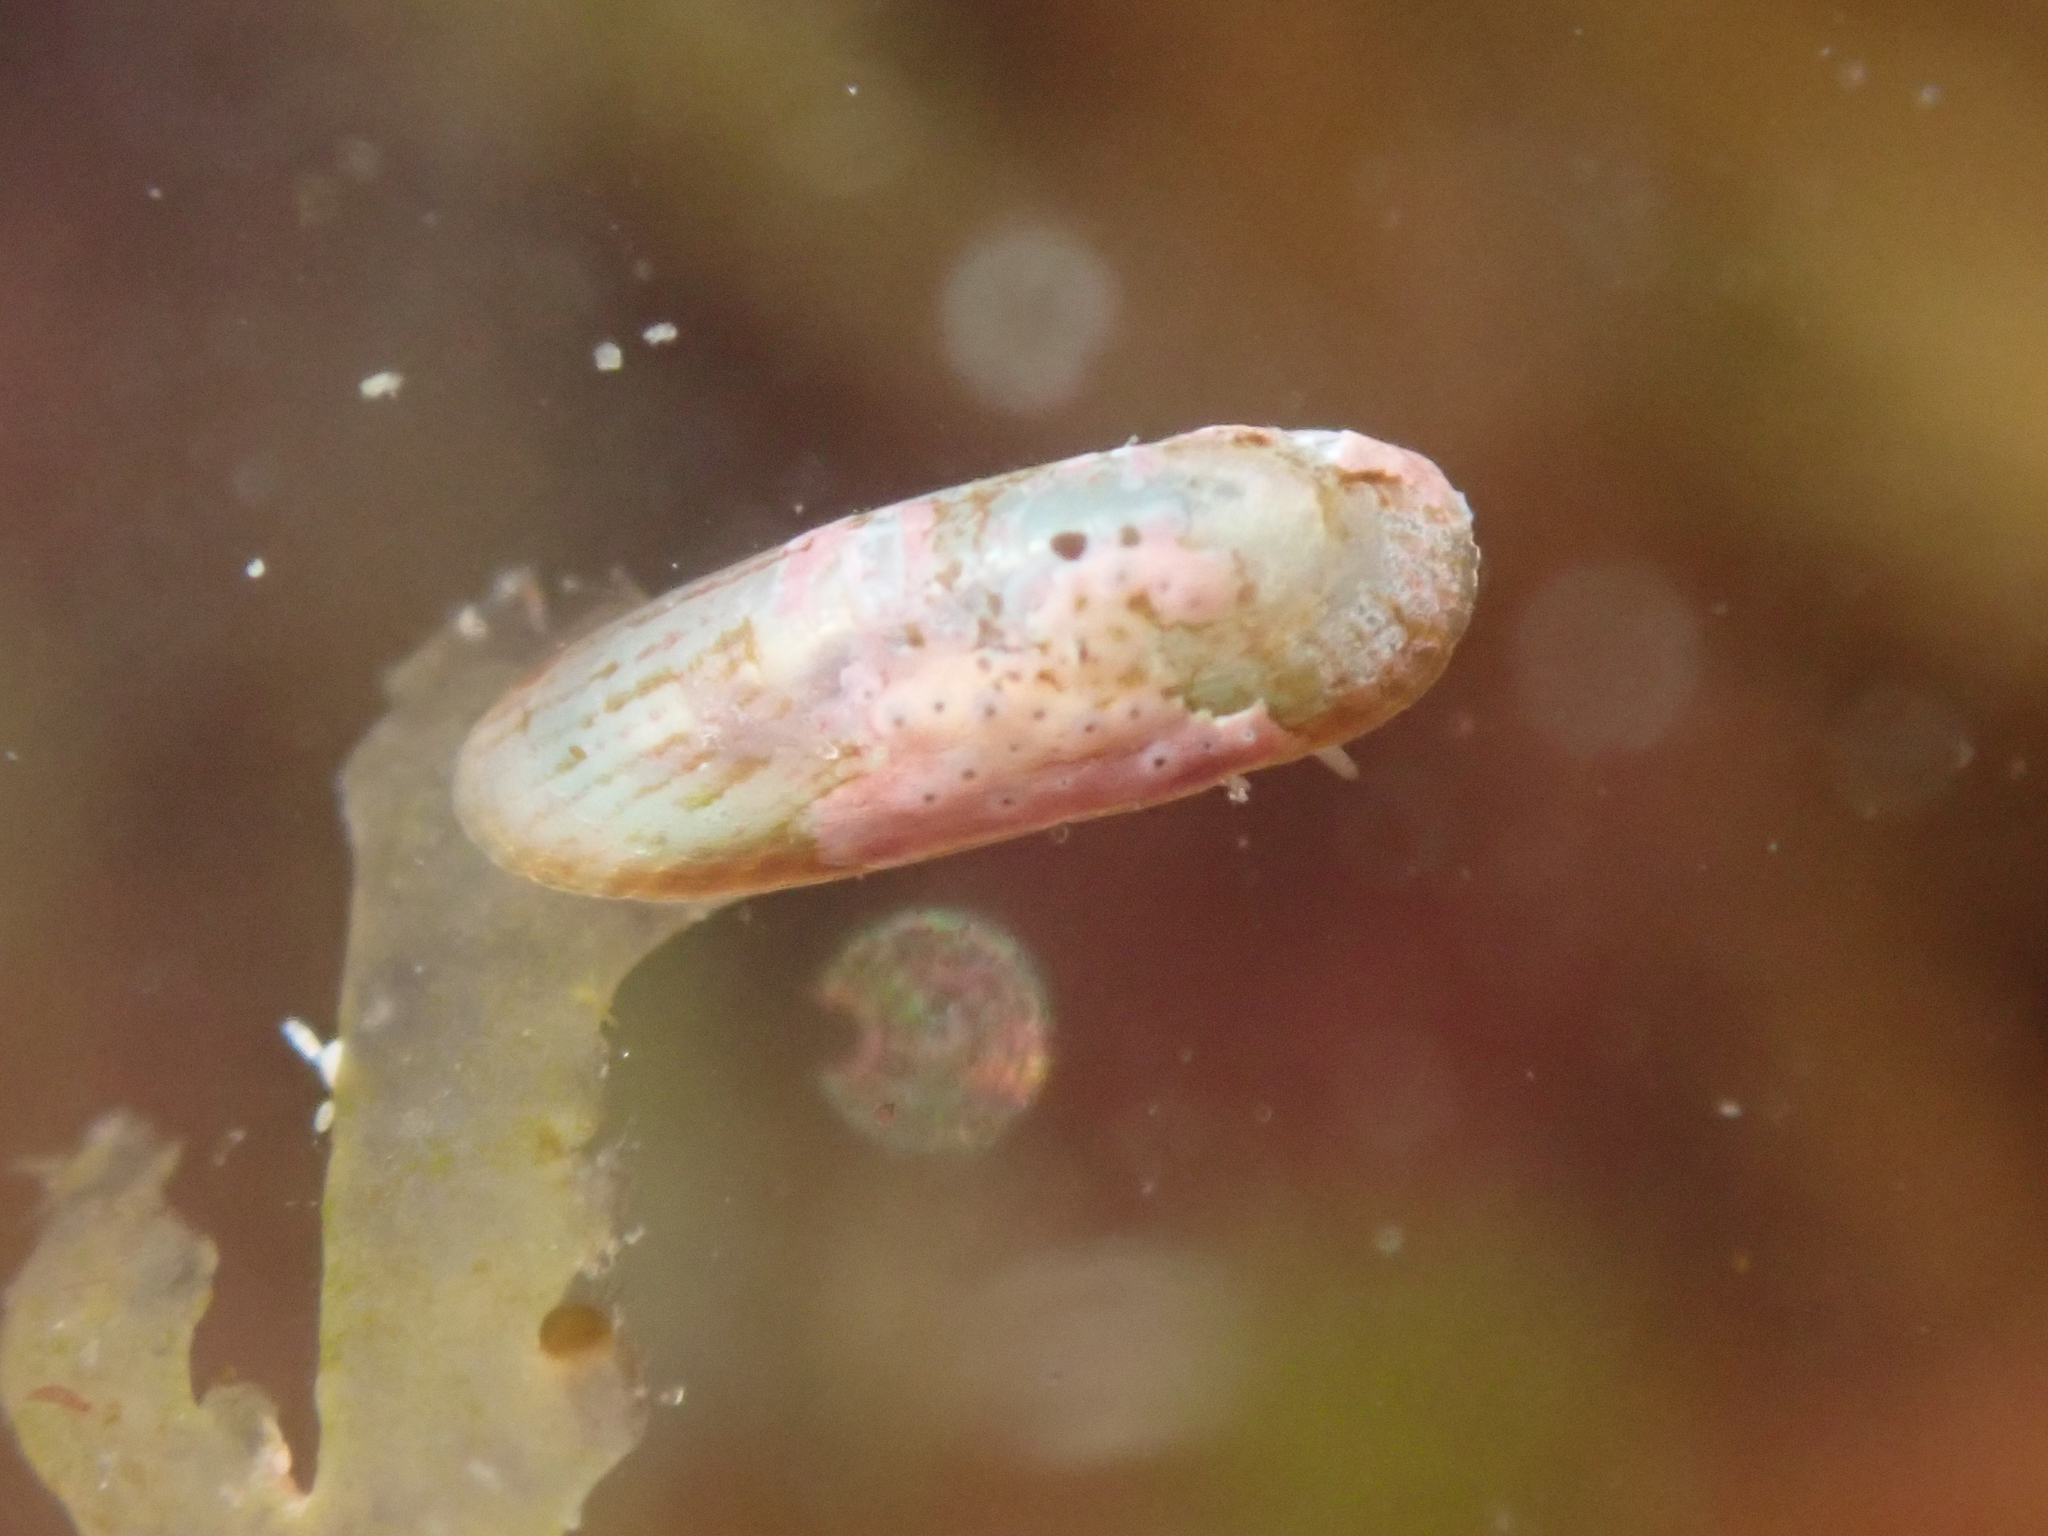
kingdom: Animalia
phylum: Mollusca
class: Gastropoda
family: Lottiidae
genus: Tectura
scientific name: Tectura paleacea
